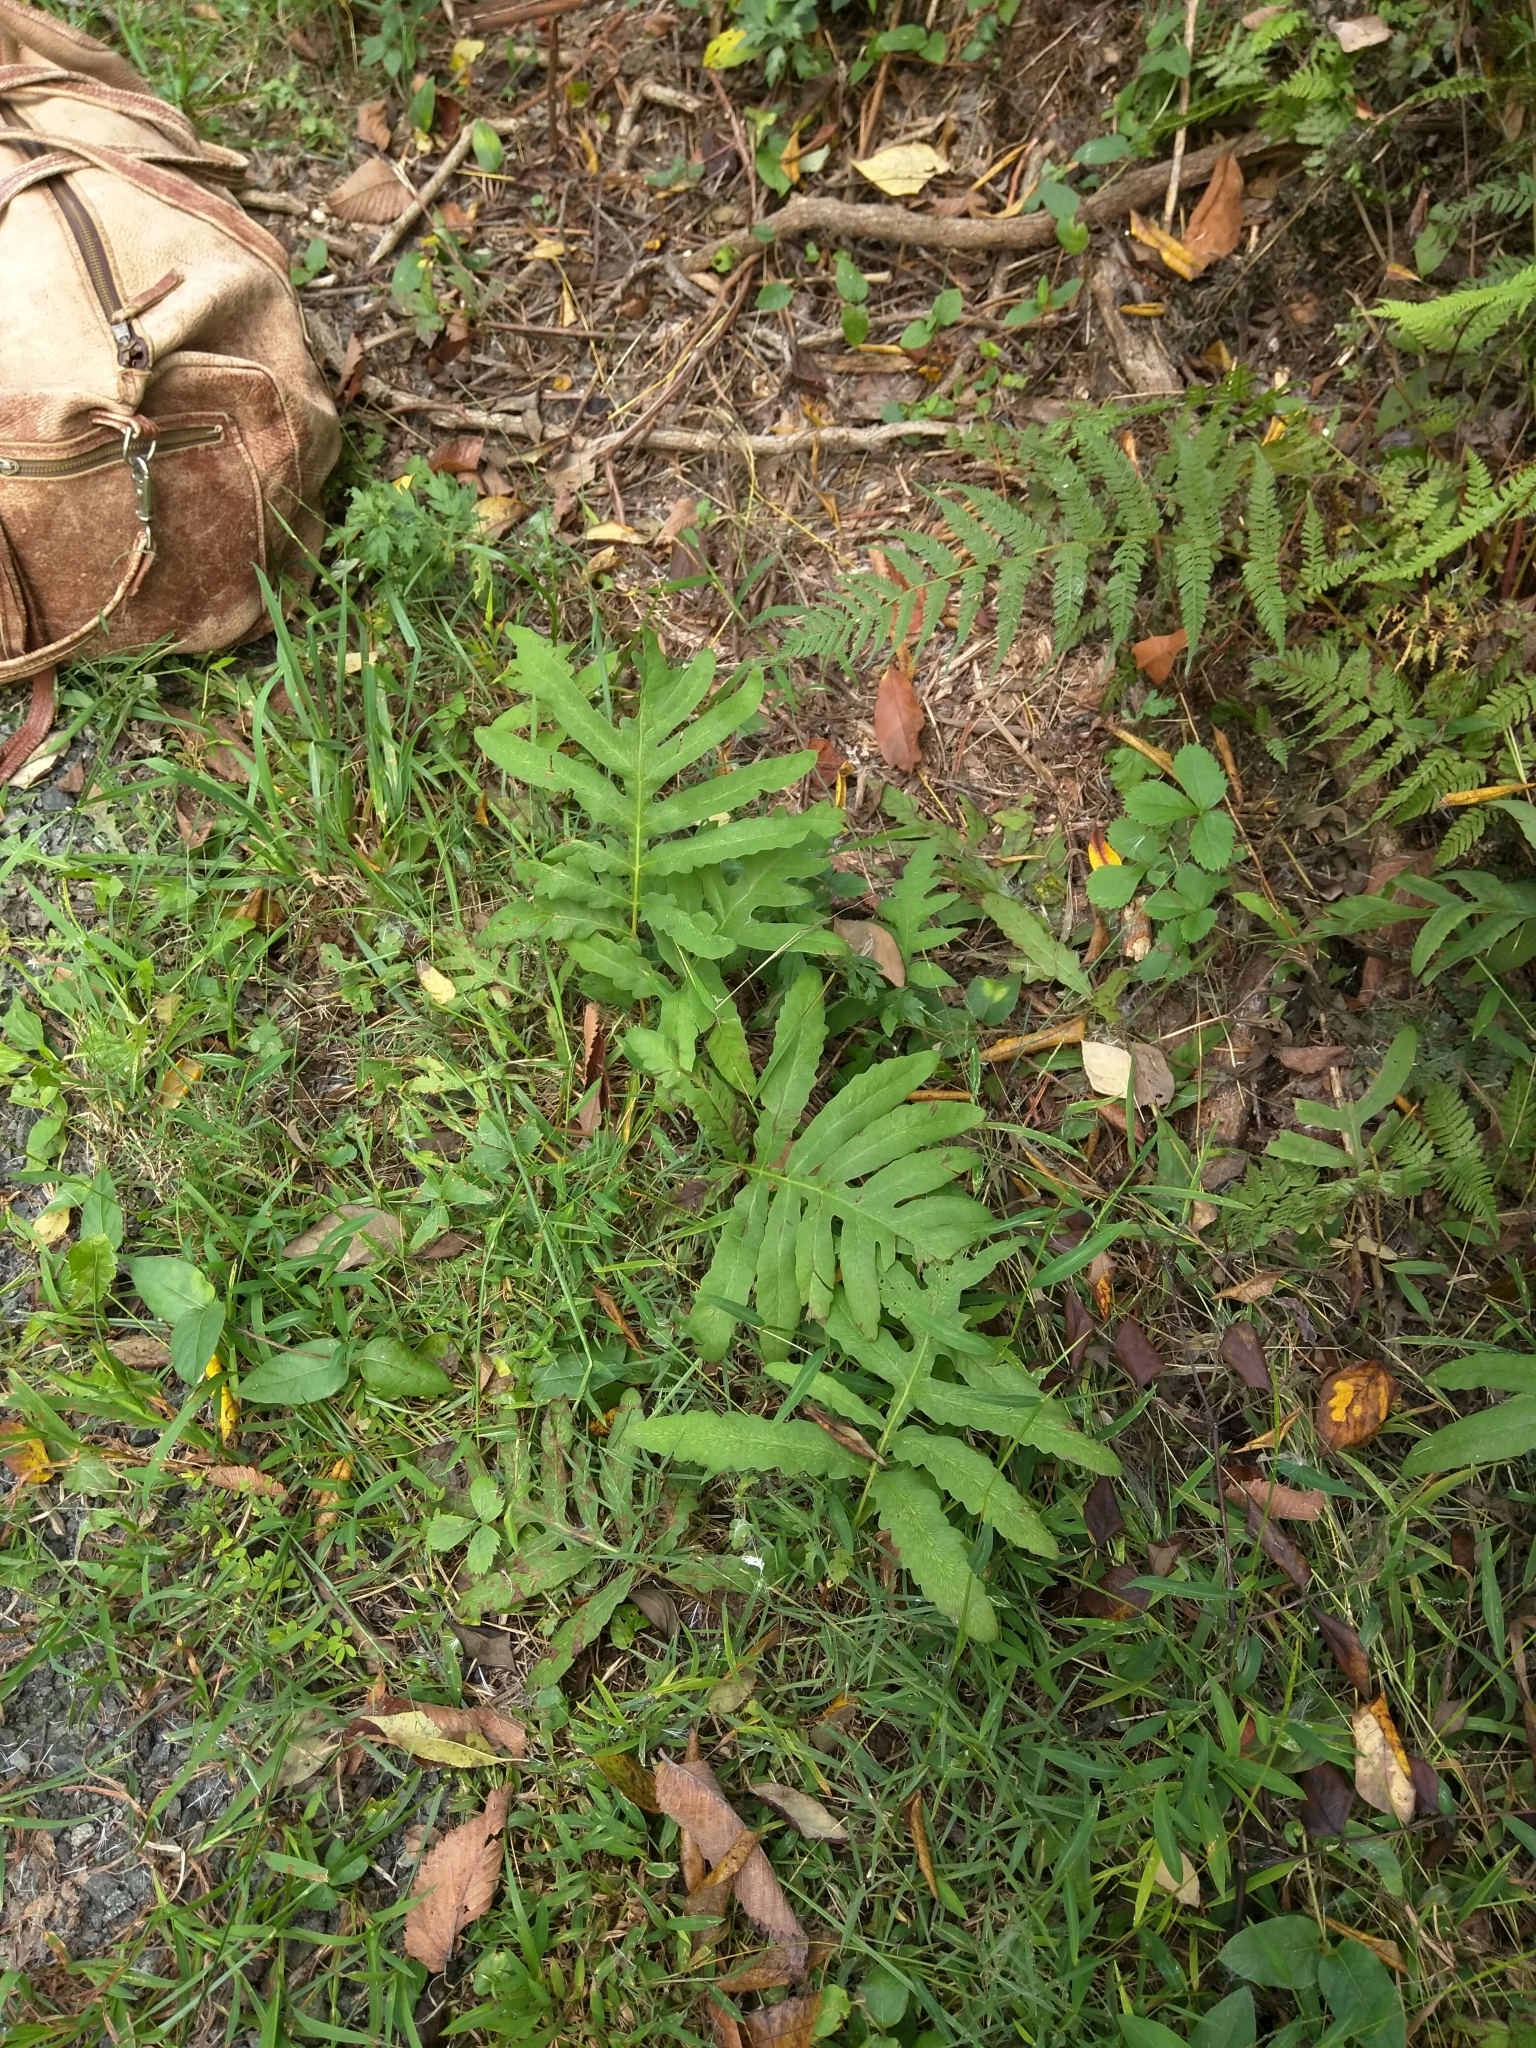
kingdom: Plantae
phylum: Tracheophyta
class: Polypodiopsida
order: Polypodiales
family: Onocleaceae
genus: Onoclea
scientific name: Onoclea sensibilis
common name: Sensitive fern
